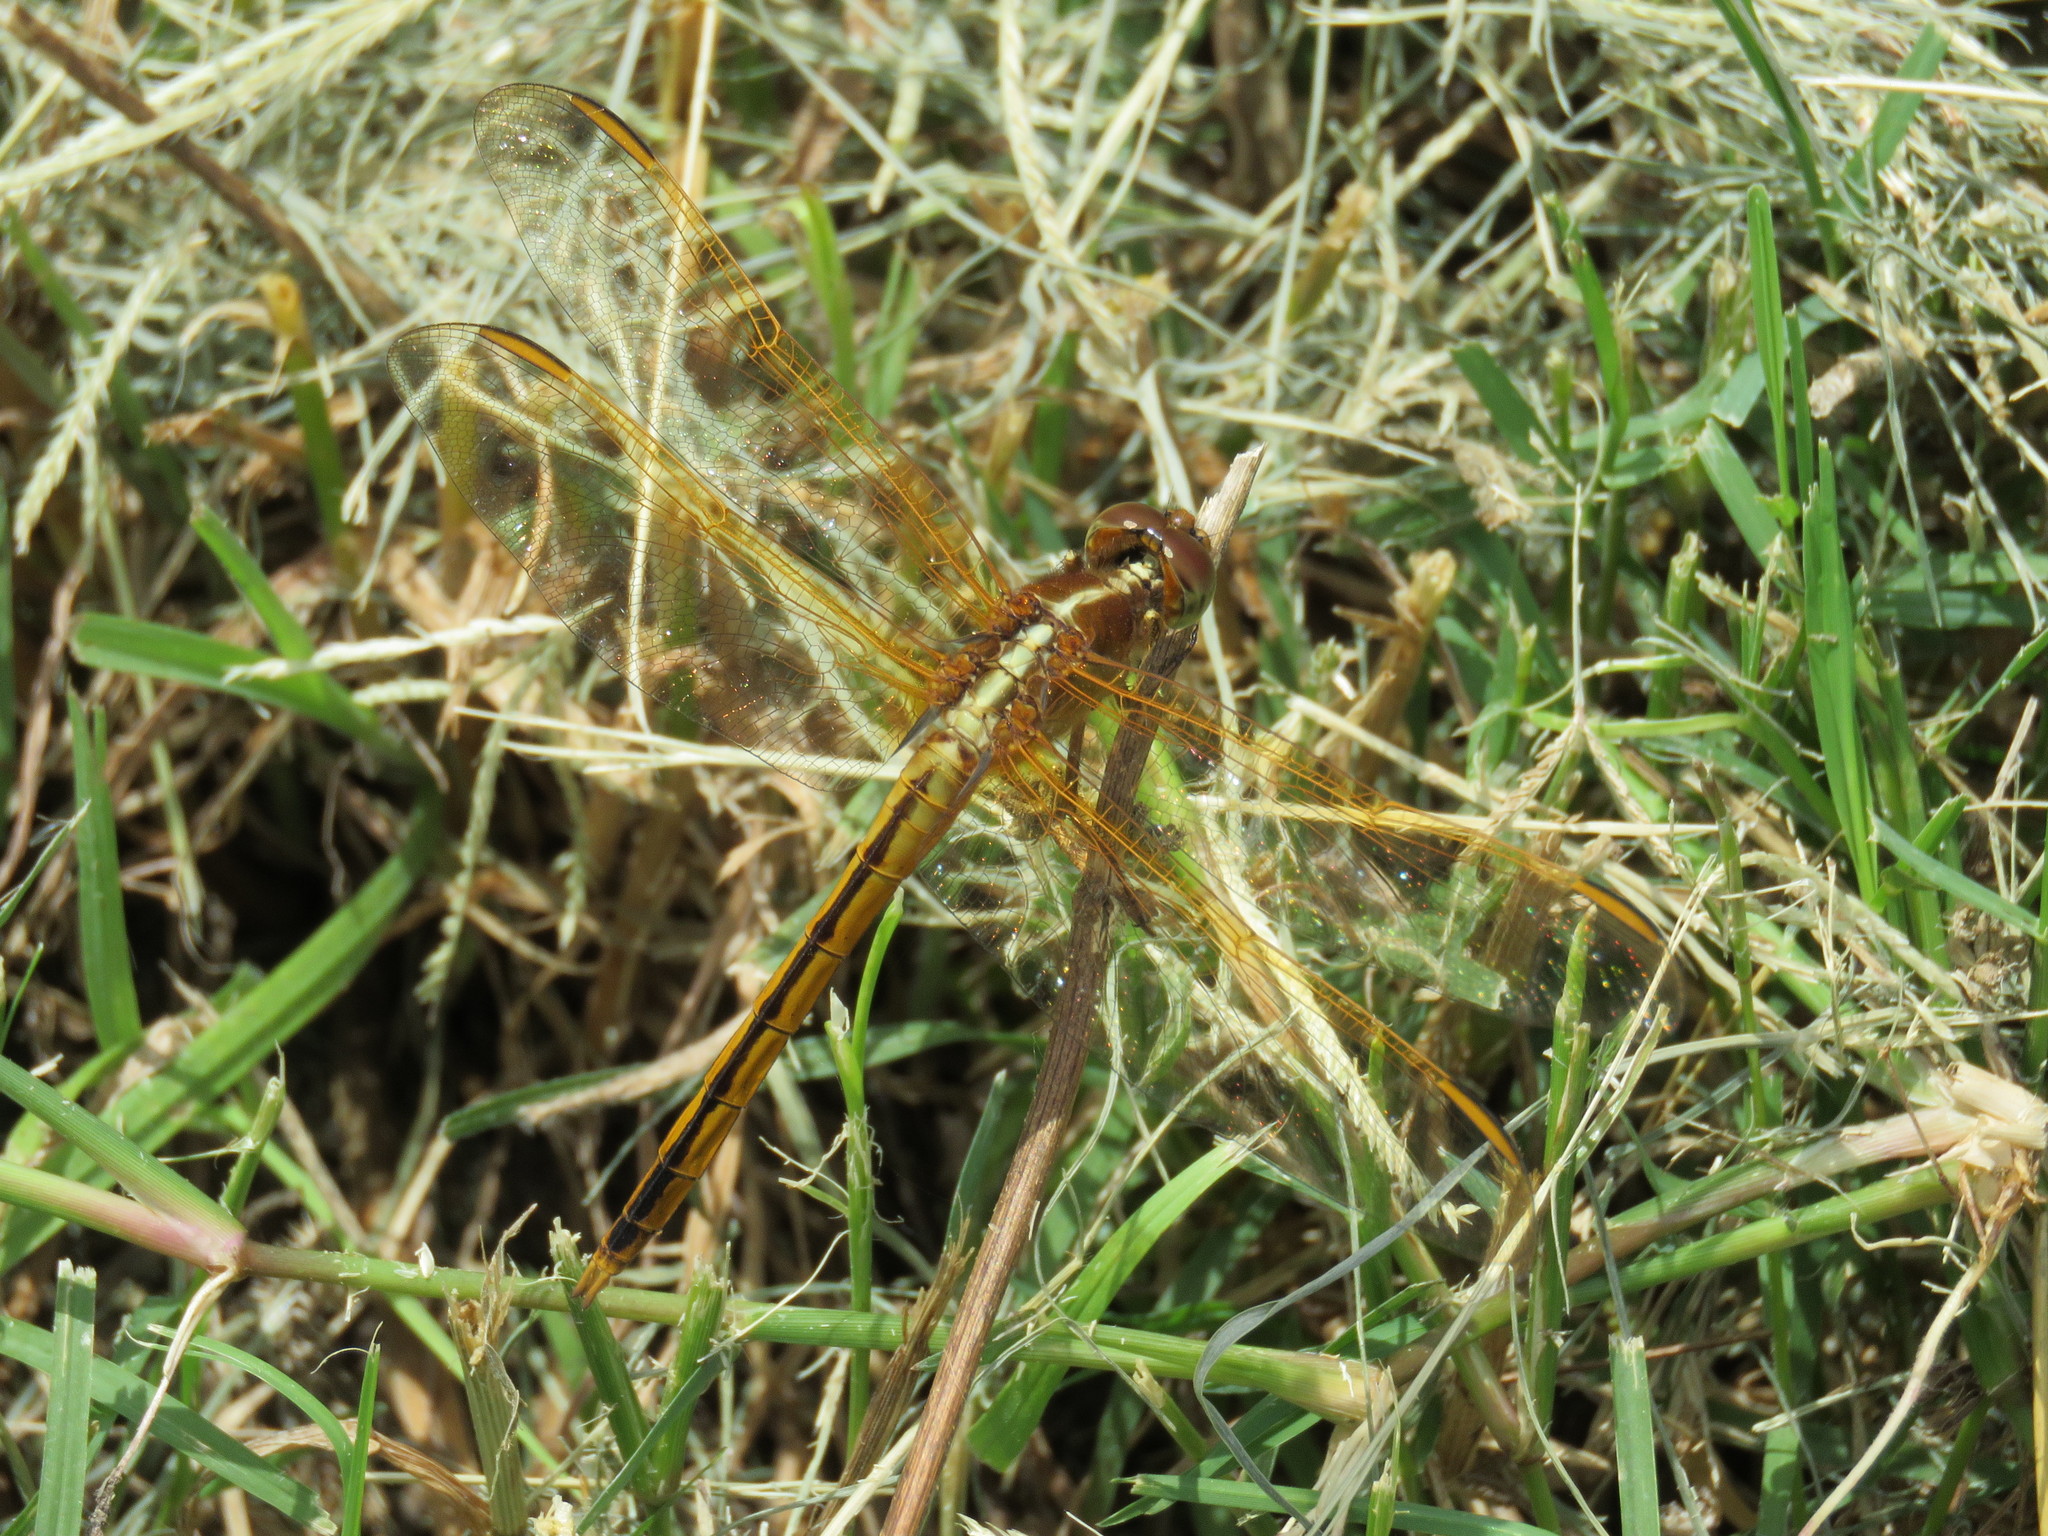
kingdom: Animalia
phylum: Arthropoda
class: Insecta
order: Odonata
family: Libellulidae
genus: Libellula
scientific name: Libellula needhami
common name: Needham's skimmer
